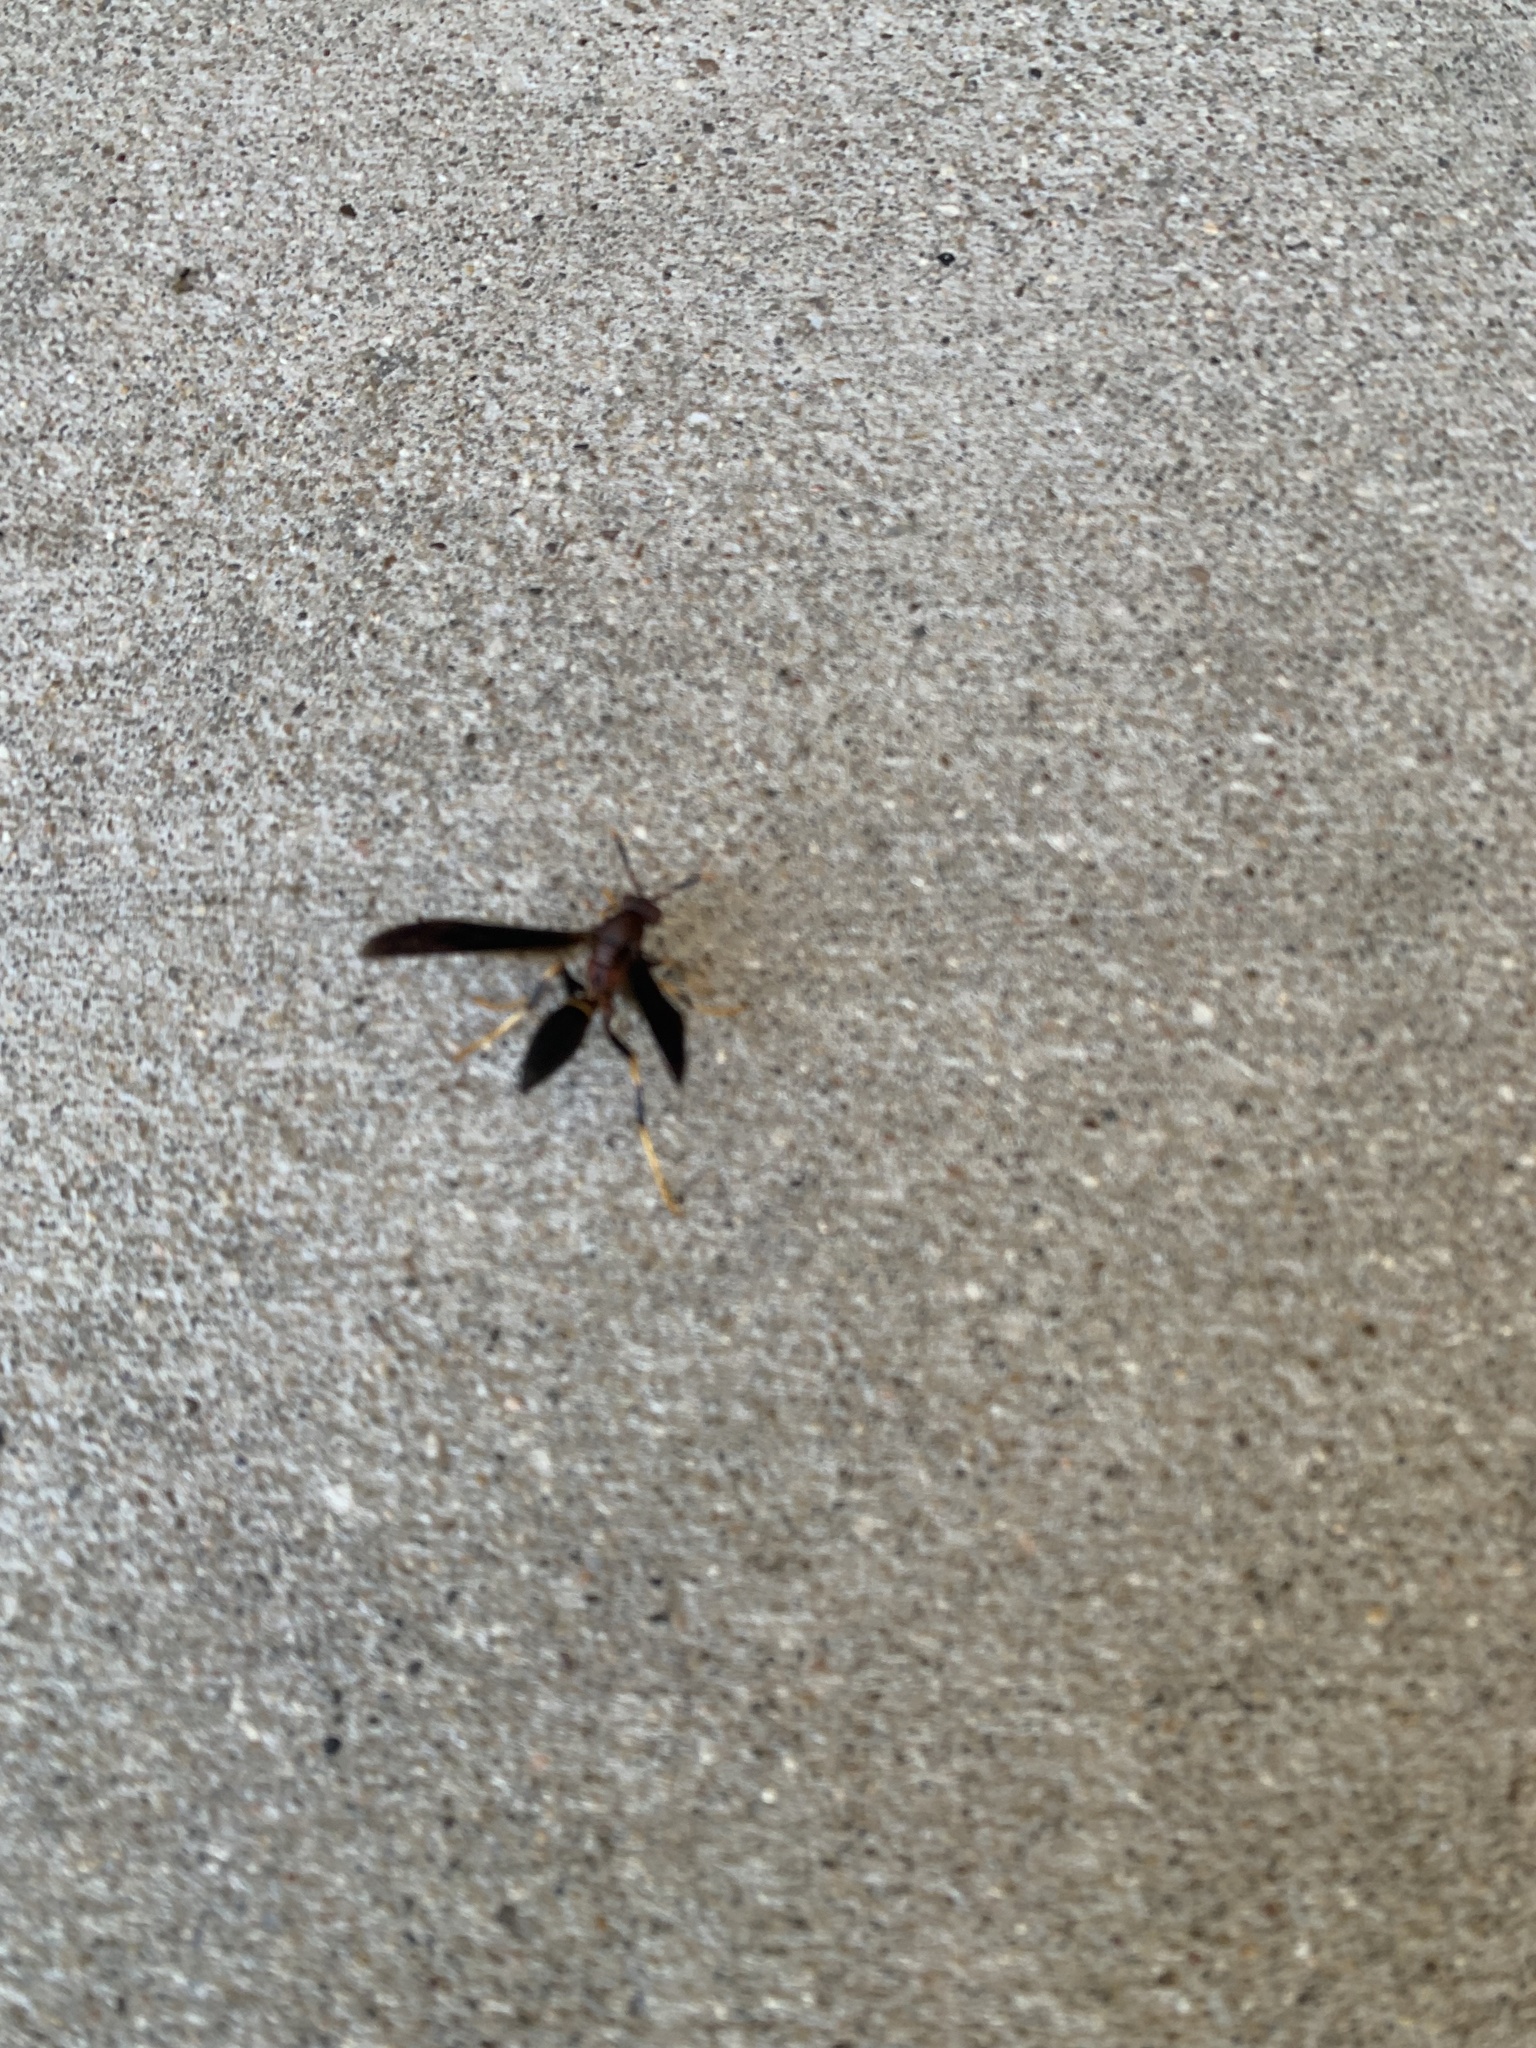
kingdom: Animalia
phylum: Arthropoda
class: Insecta
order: Hymenoptera
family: Eumenidae
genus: Polistes
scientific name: Polistes annularis
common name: Ringed paper wasp
